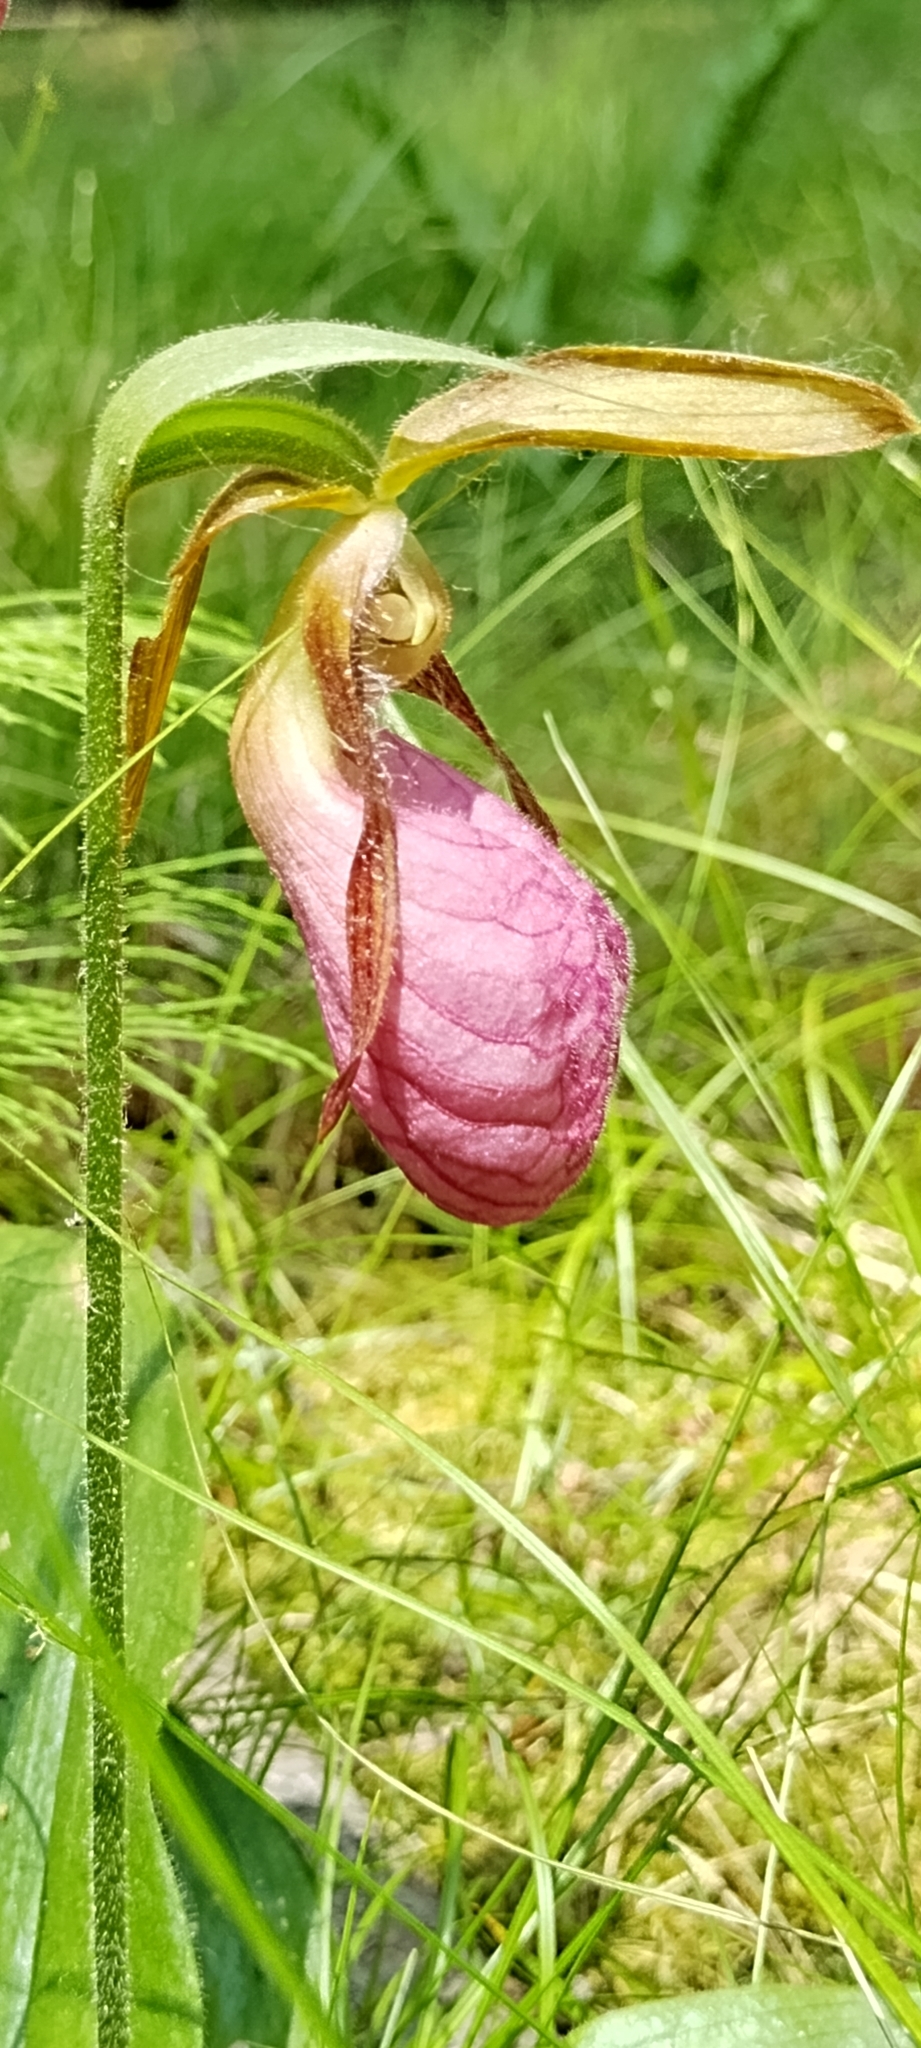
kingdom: Plantae
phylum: Tracheophyta
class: Liliopsida
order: Asparagales
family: Orchidaceae
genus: Cypripedium
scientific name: Cypripedium acaule
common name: Pink lady's-slipper
